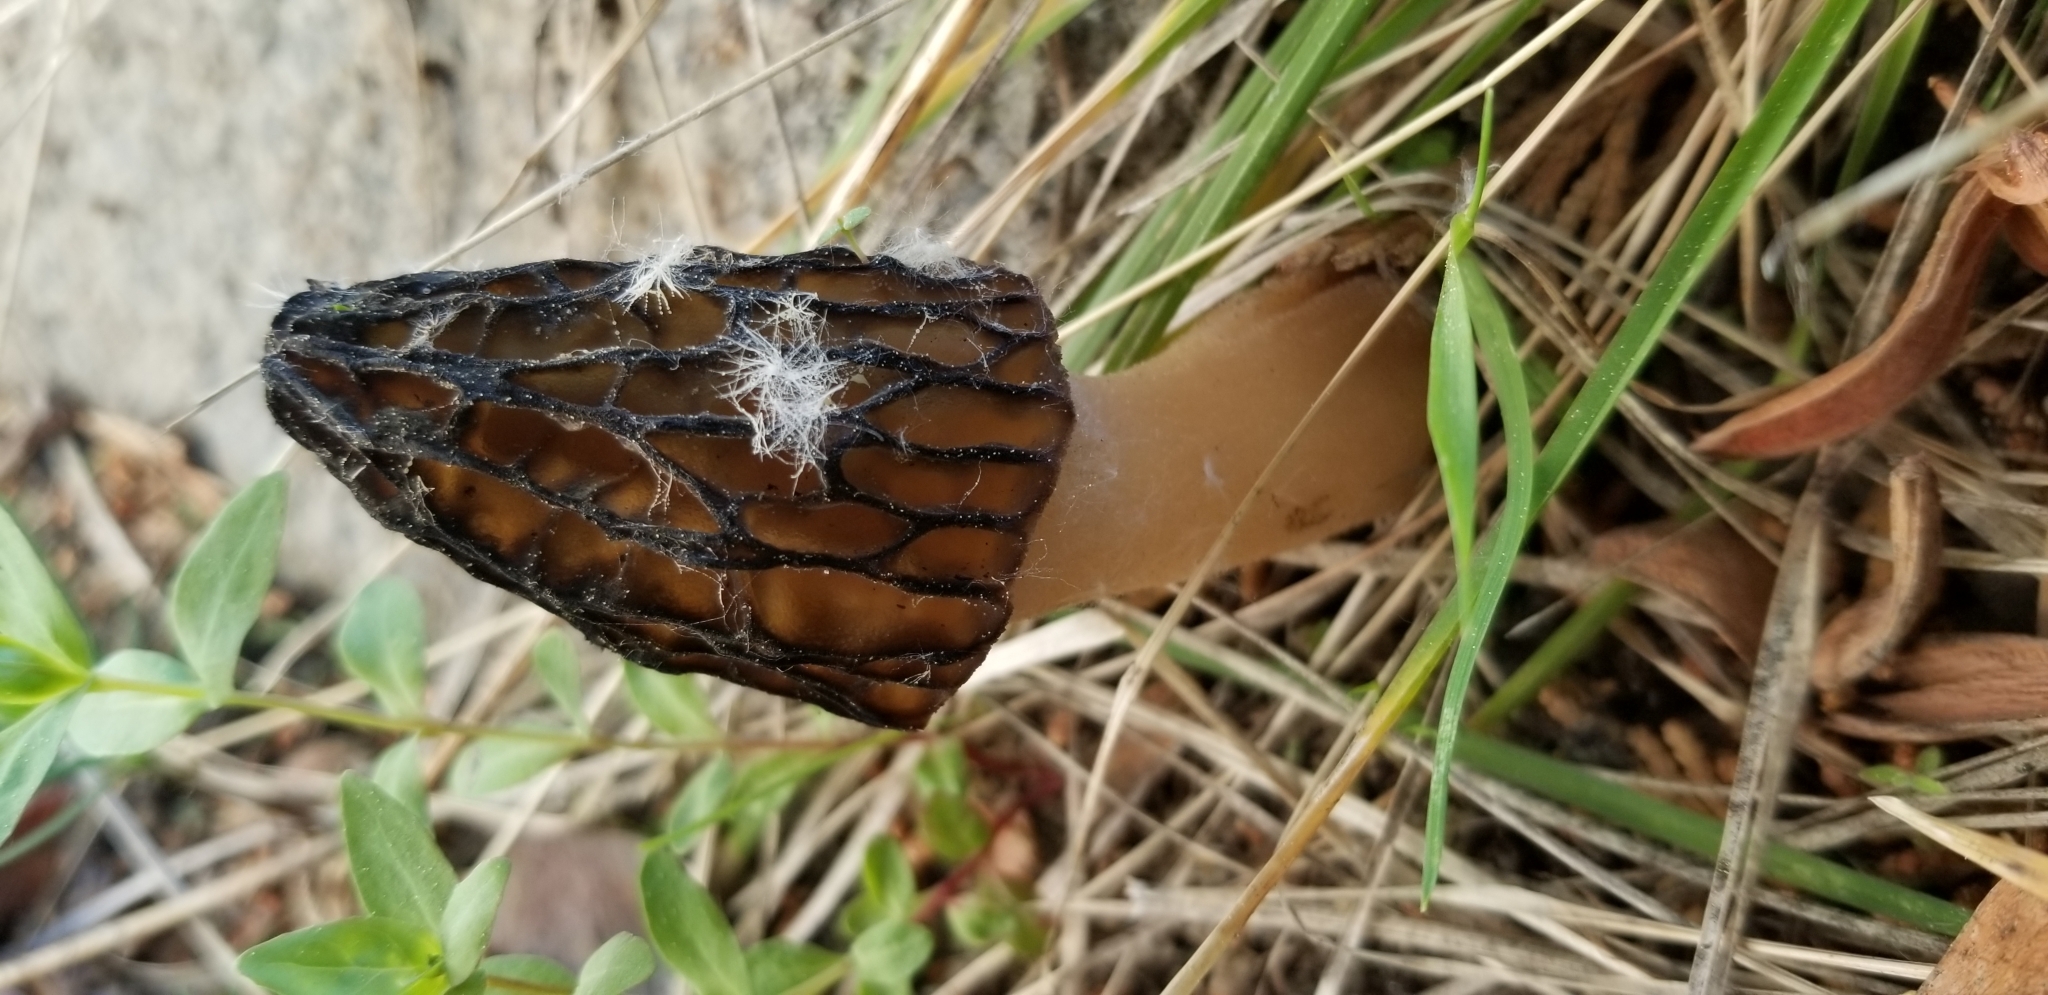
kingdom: Fungi
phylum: Ascomycota
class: Pezizomycetes
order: Pezizales
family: Morchellaceae
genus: Morchella
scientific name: Morchella brunnea
